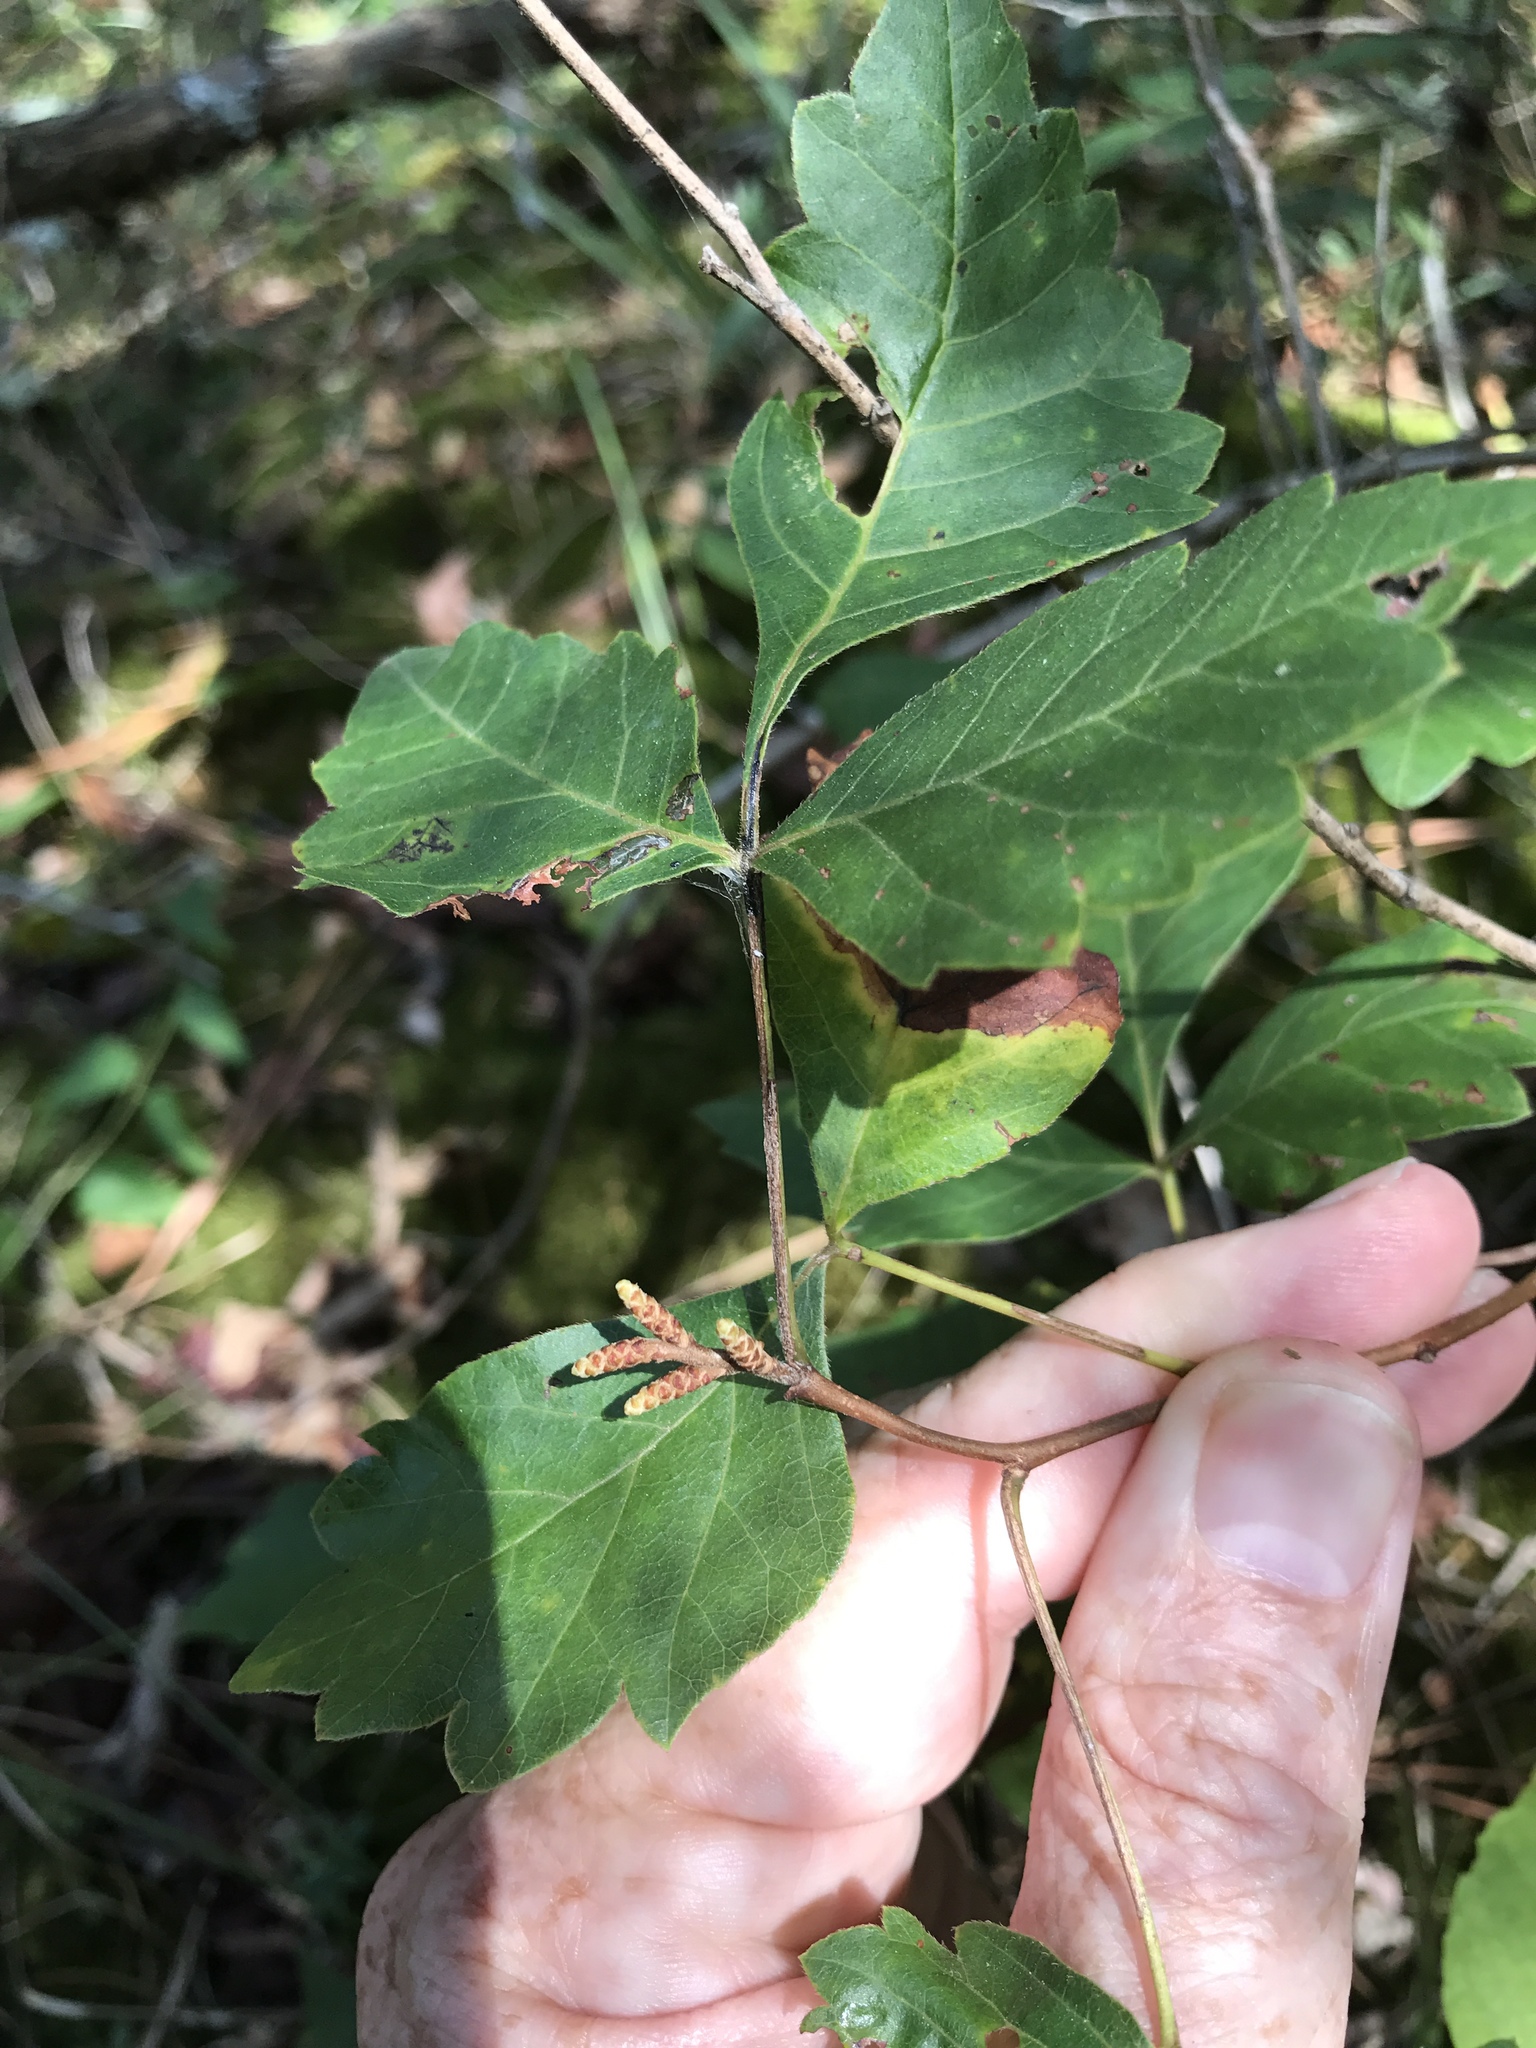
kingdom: Plantae
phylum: Tracheophyta
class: Magnoliopsida
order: Sapindales
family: Anacardiaceae
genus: Rhus
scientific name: Rhus aromatica
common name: Aromatic sumac
